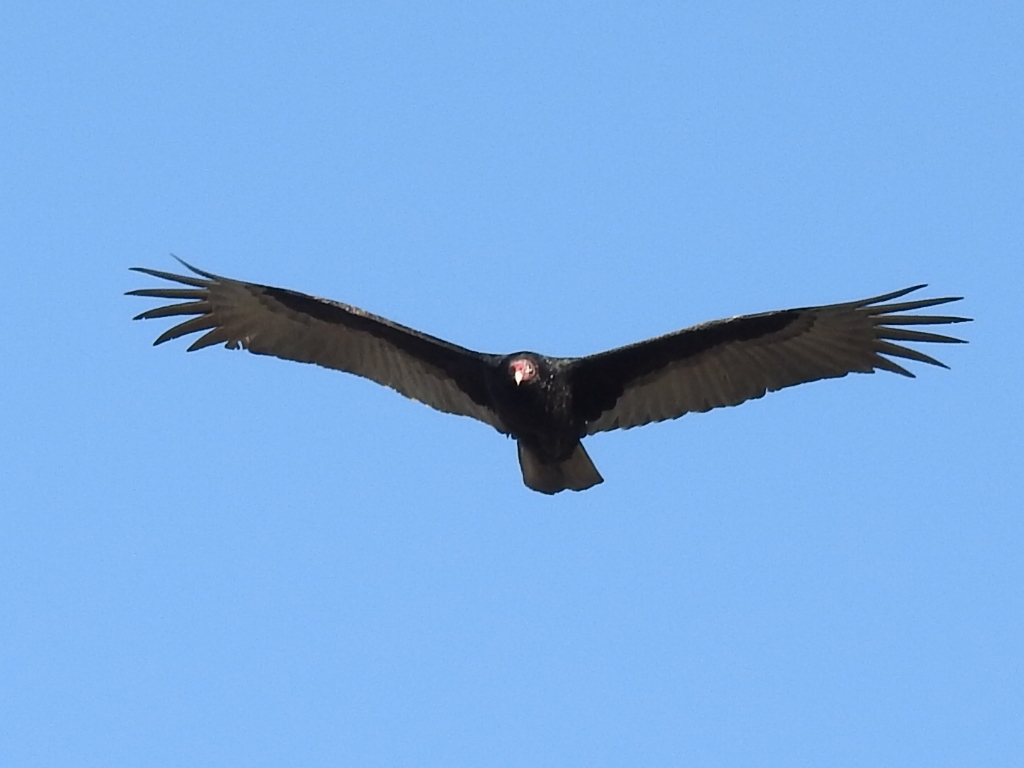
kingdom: Animalia
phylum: Chordata
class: Aves
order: Accipitriformes
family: Cathartidae
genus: Cathartes
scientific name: Cathartes aura
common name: Turkey vulture
